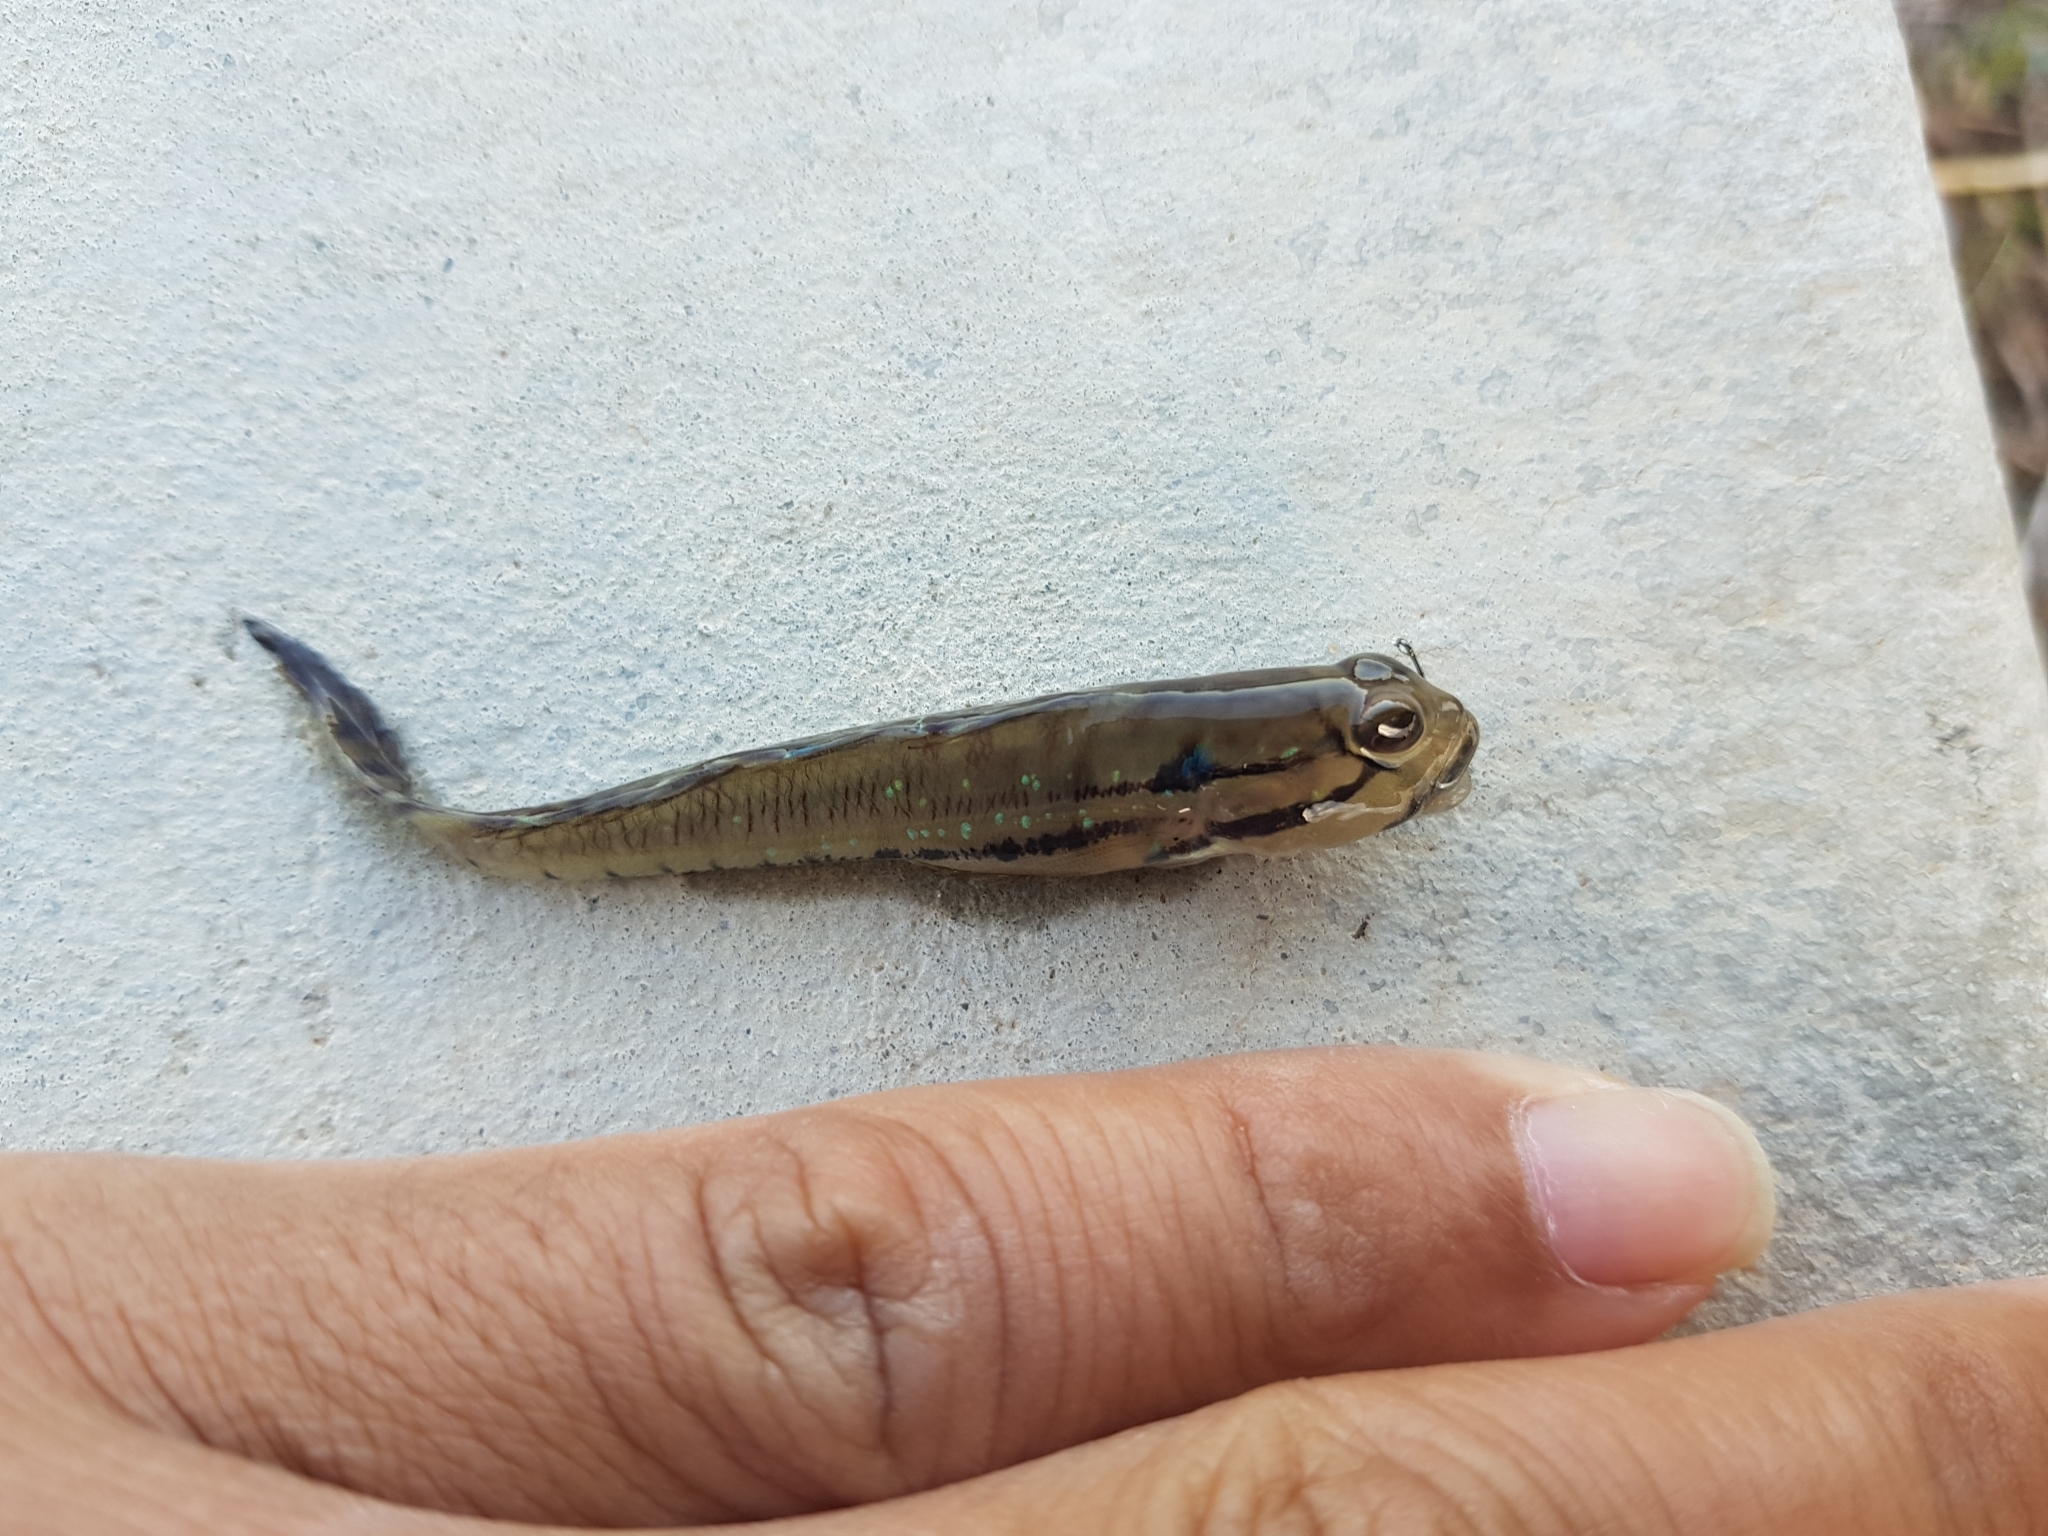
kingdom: Animalia
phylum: Chordata
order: Perciformes
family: Gobiidae
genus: Arenigobius
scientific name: Arenigobius bifrenatus
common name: Bridled goby
